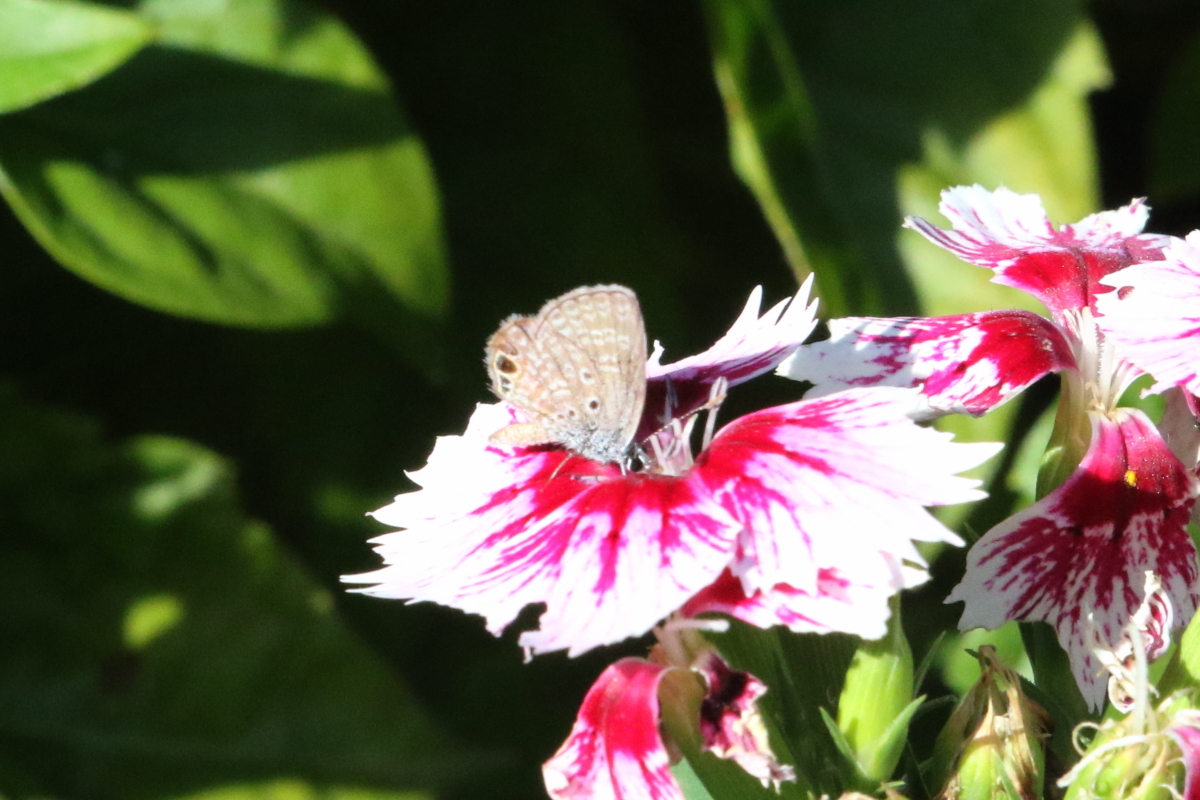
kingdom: Animalia
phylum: Arthropoda
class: Insecta
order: Lepidoptera
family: Lycaenidae
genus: Hemiargus
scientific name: Hemiargus ceraunus
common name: Ceraunus blue
